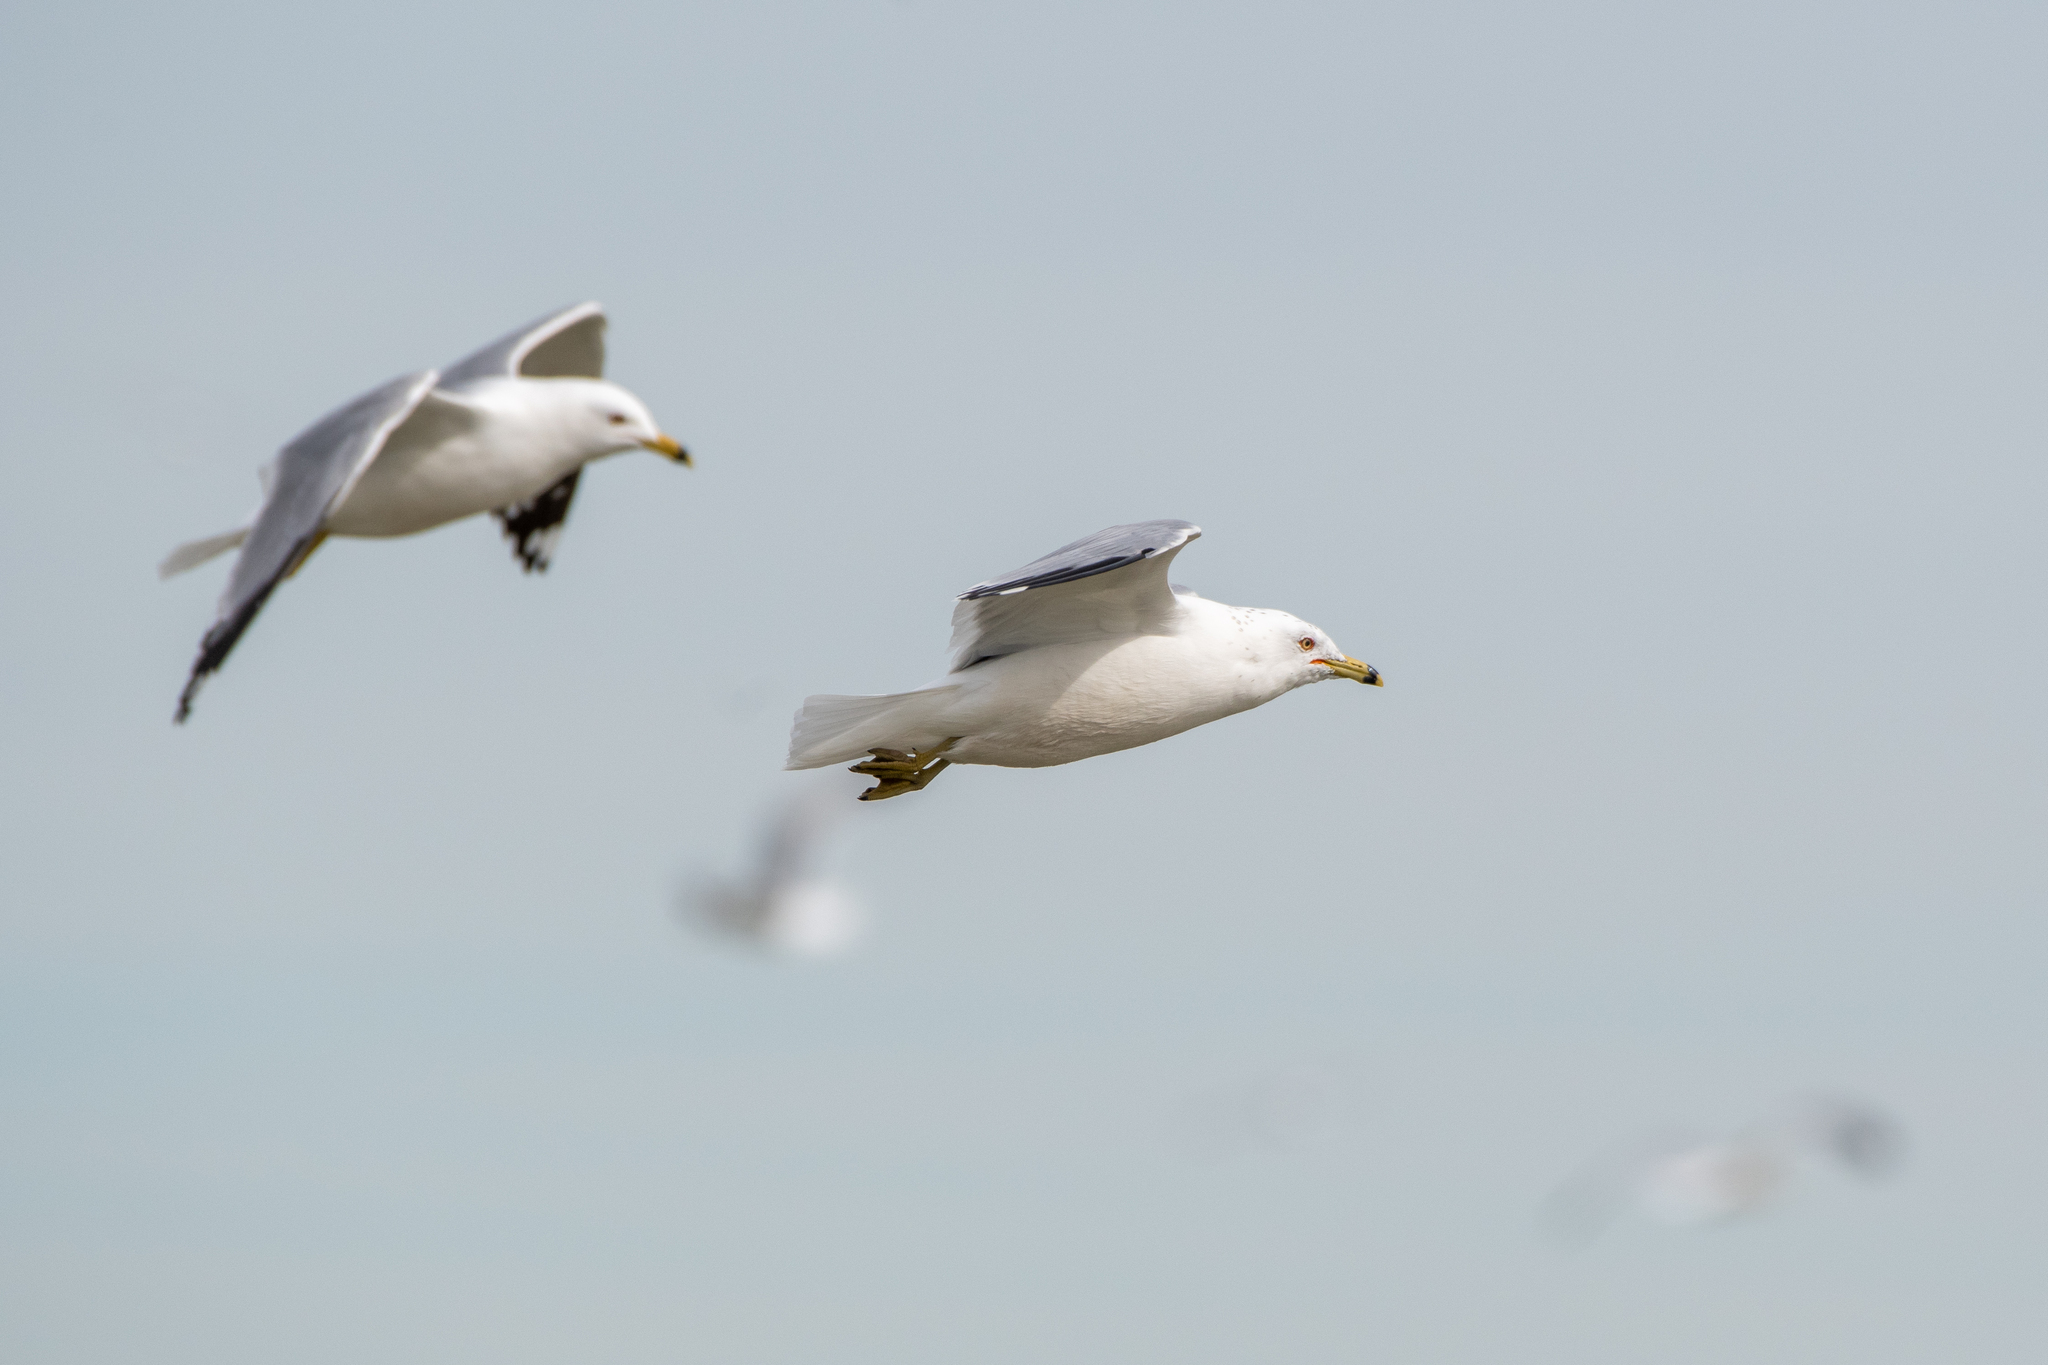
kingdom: Animalia
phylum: Chordata
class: Aves
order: Charadriiformes
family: Laridae
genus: Larus
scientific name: Larus delawarensis
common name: Ring-billed gull
